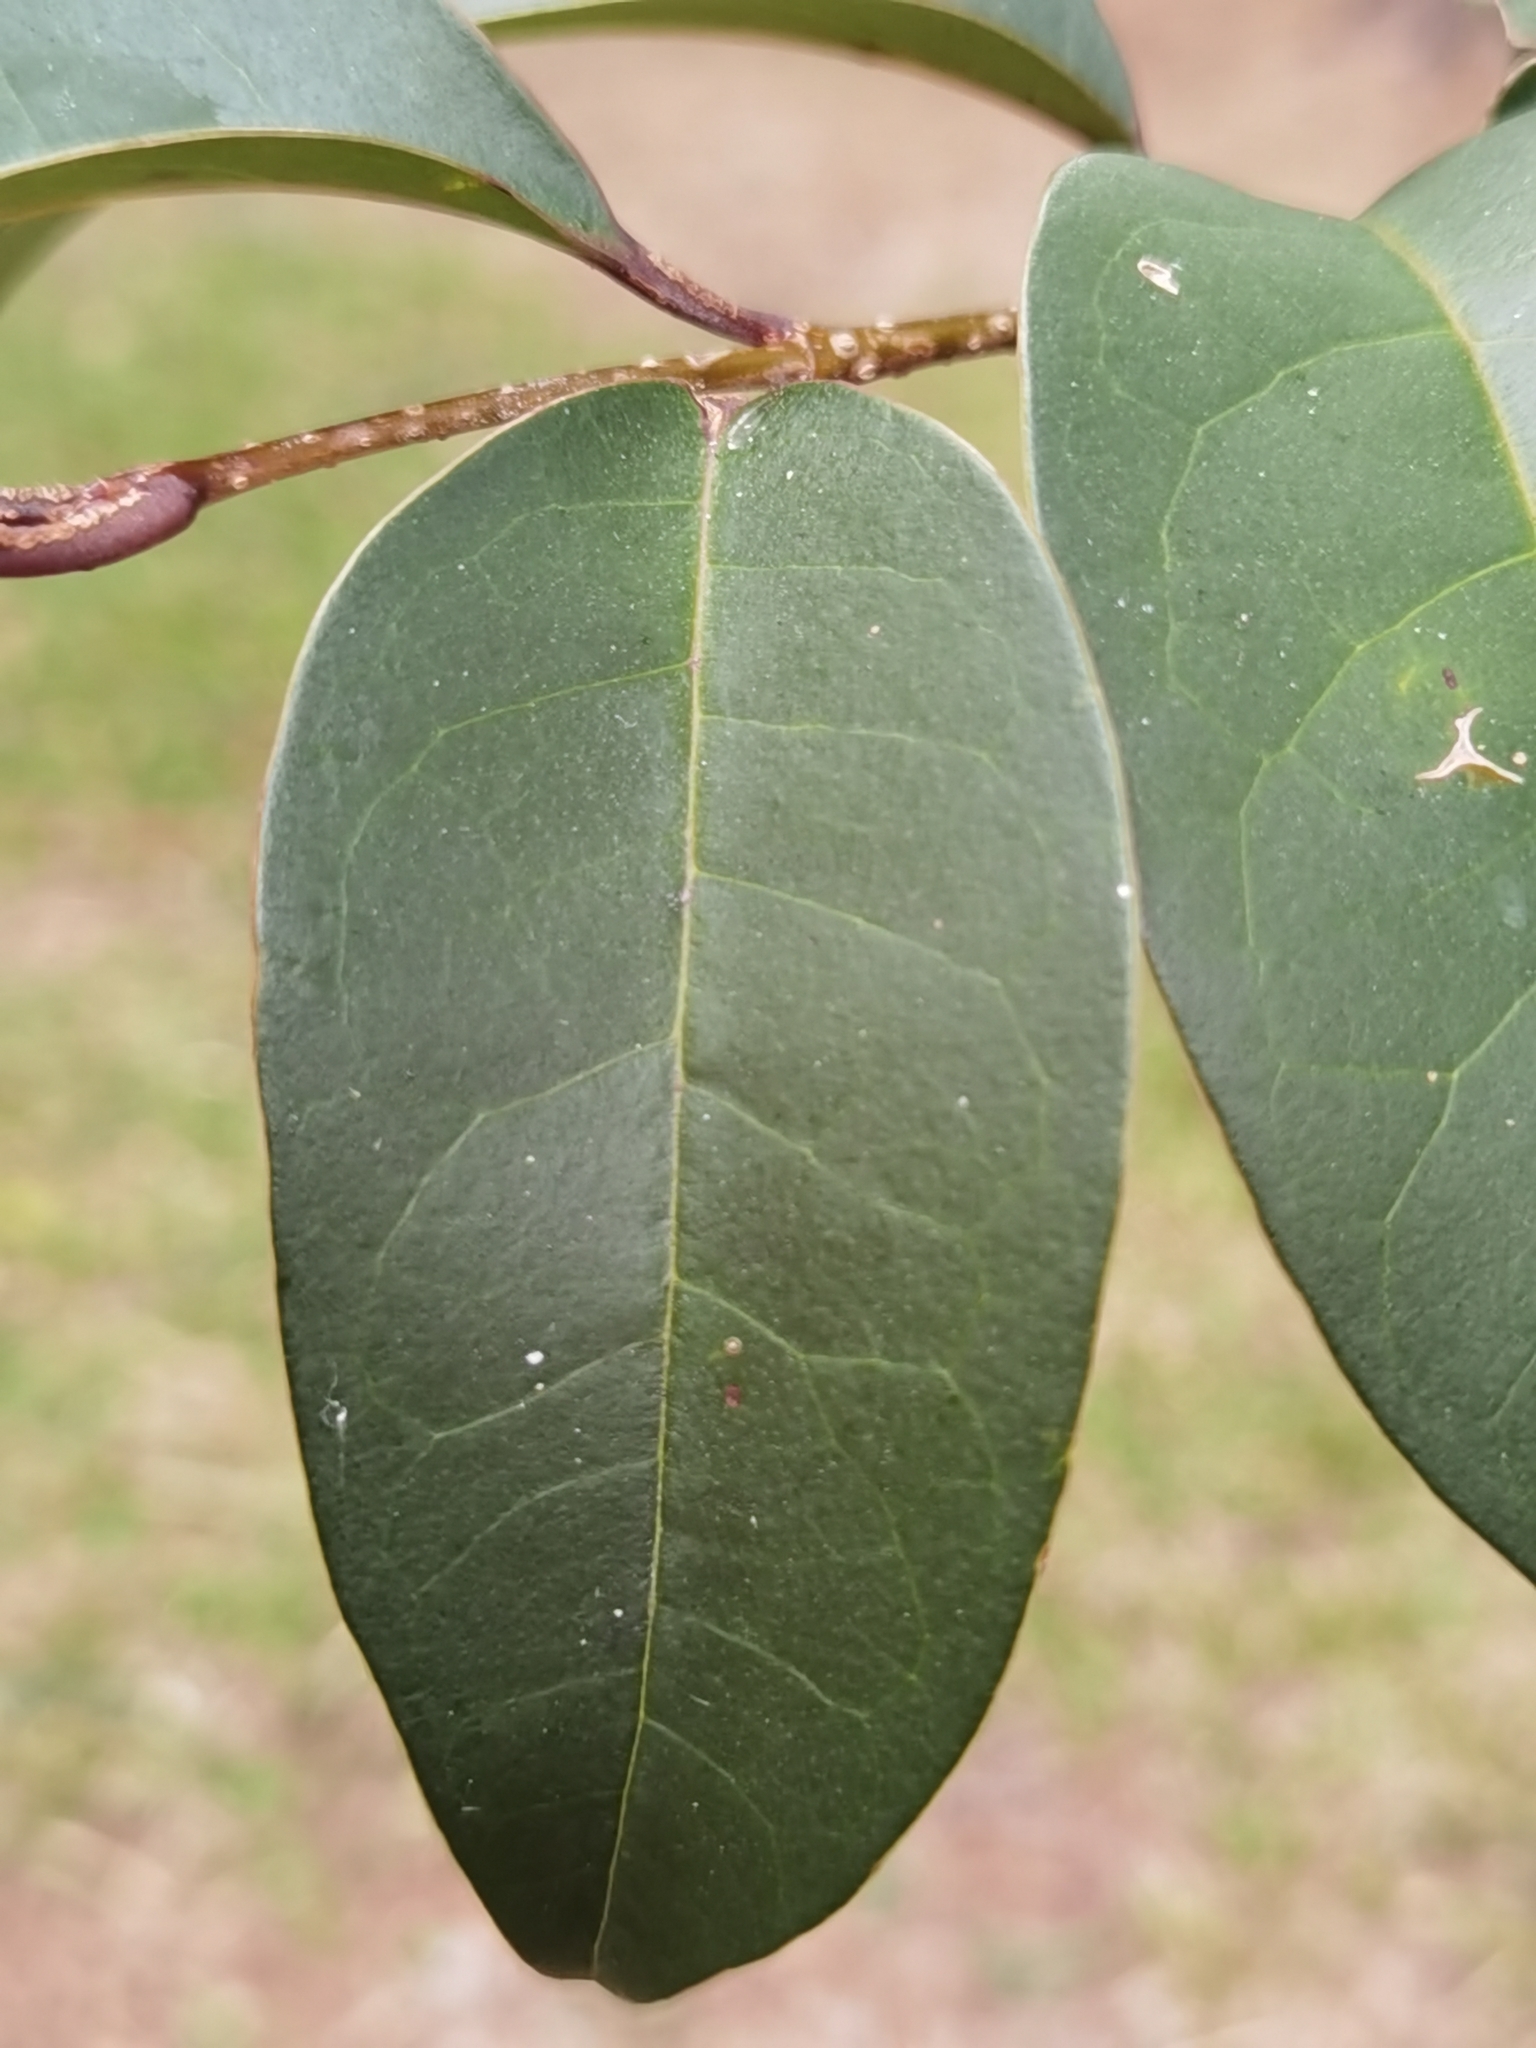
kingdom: Plantae
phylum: Tracheophyta
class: Magnoliopsida
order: Lamiales
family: Oleaceae
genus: Ligustrum
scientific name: Ligustrum lucidum
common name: Glossy privet
